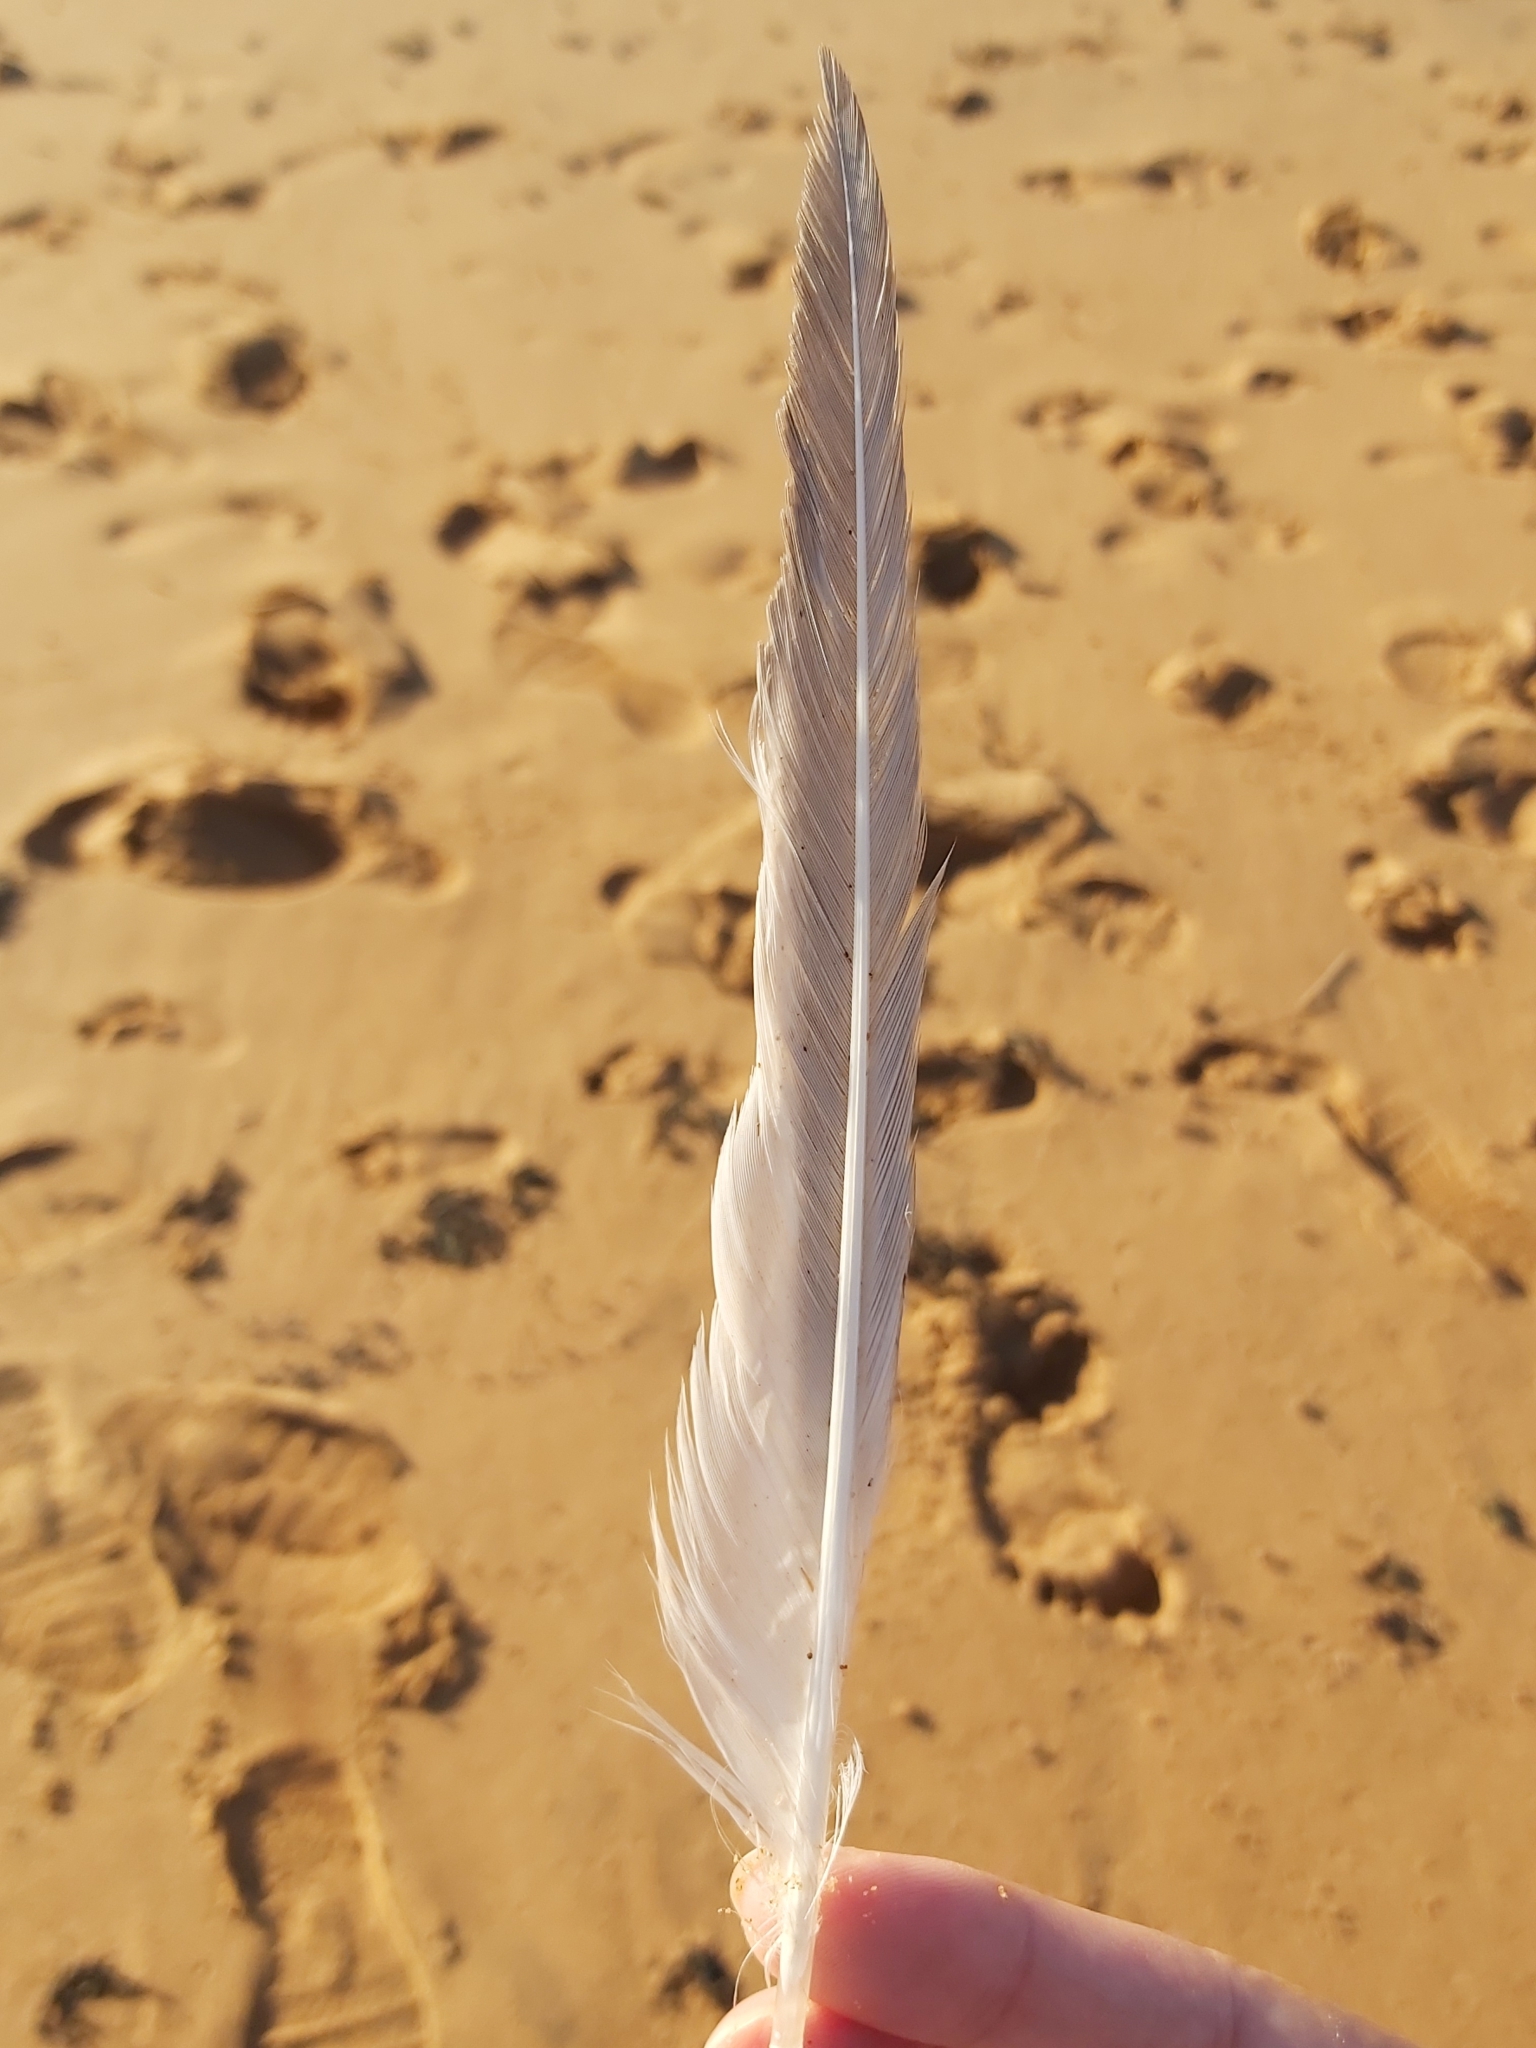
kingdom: Animalia
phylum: Chordata
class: Aves
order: Charadriiformes
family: Laridae
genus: Thalasseus
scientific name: Thalasseus bergii
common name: Greater crested tern
